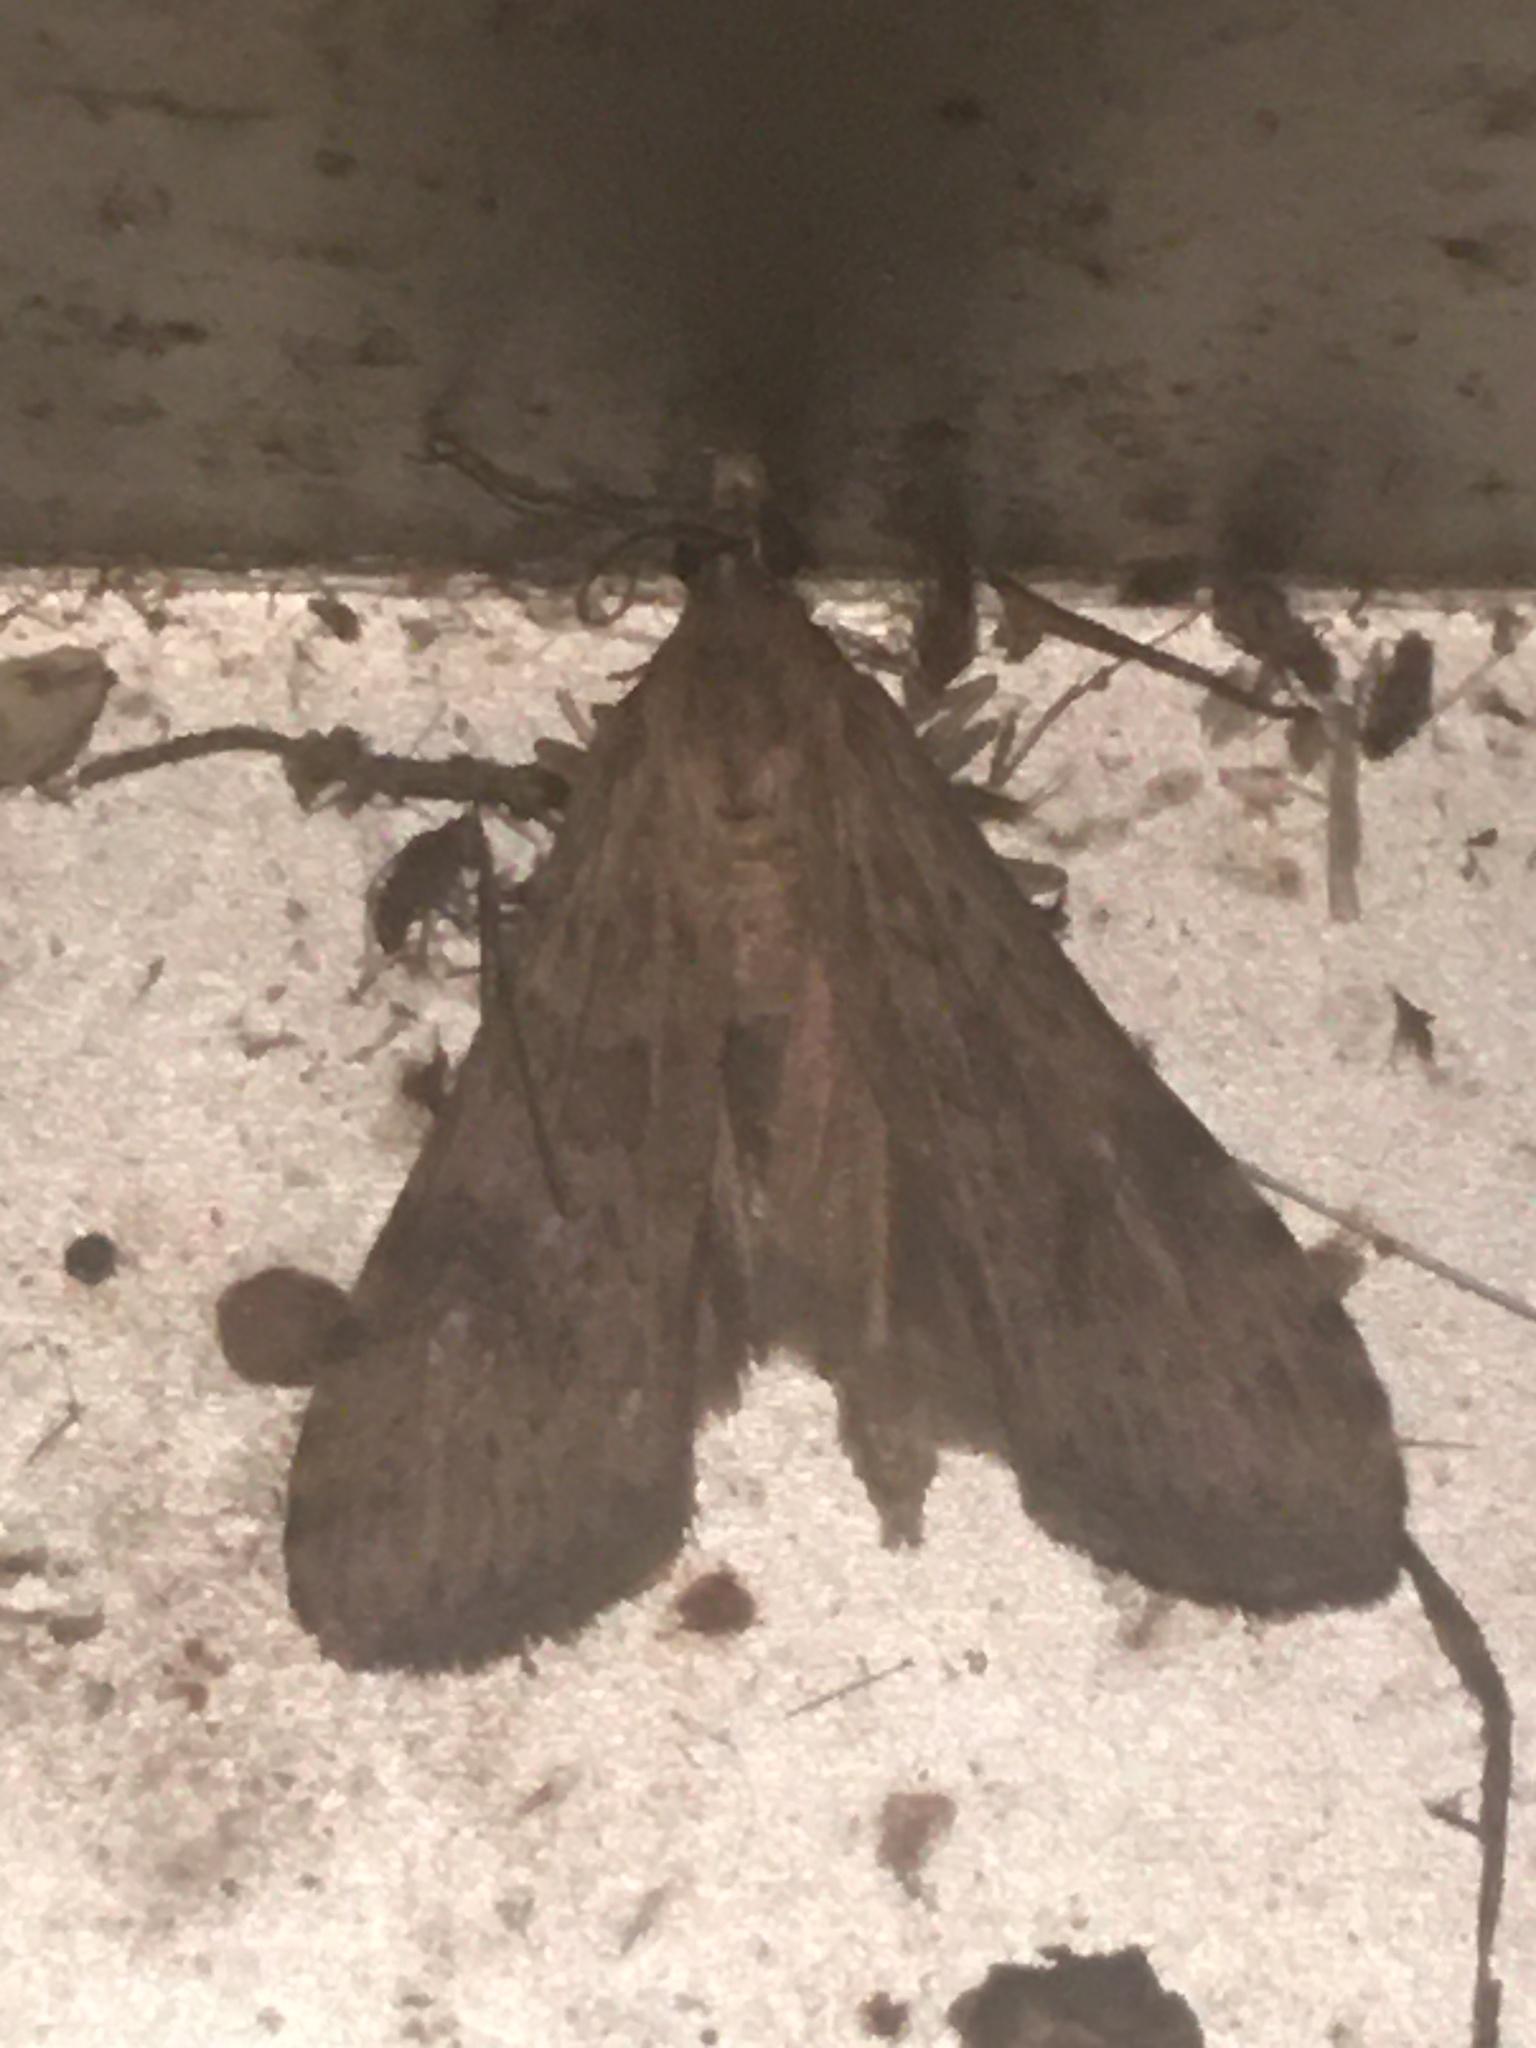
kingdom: Animalia
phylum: Arthropoda
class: Insecta
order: Lepidoptera
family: Crambidae
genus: Nomophila
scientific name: Nomophila nearctica
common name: American rush veneer
